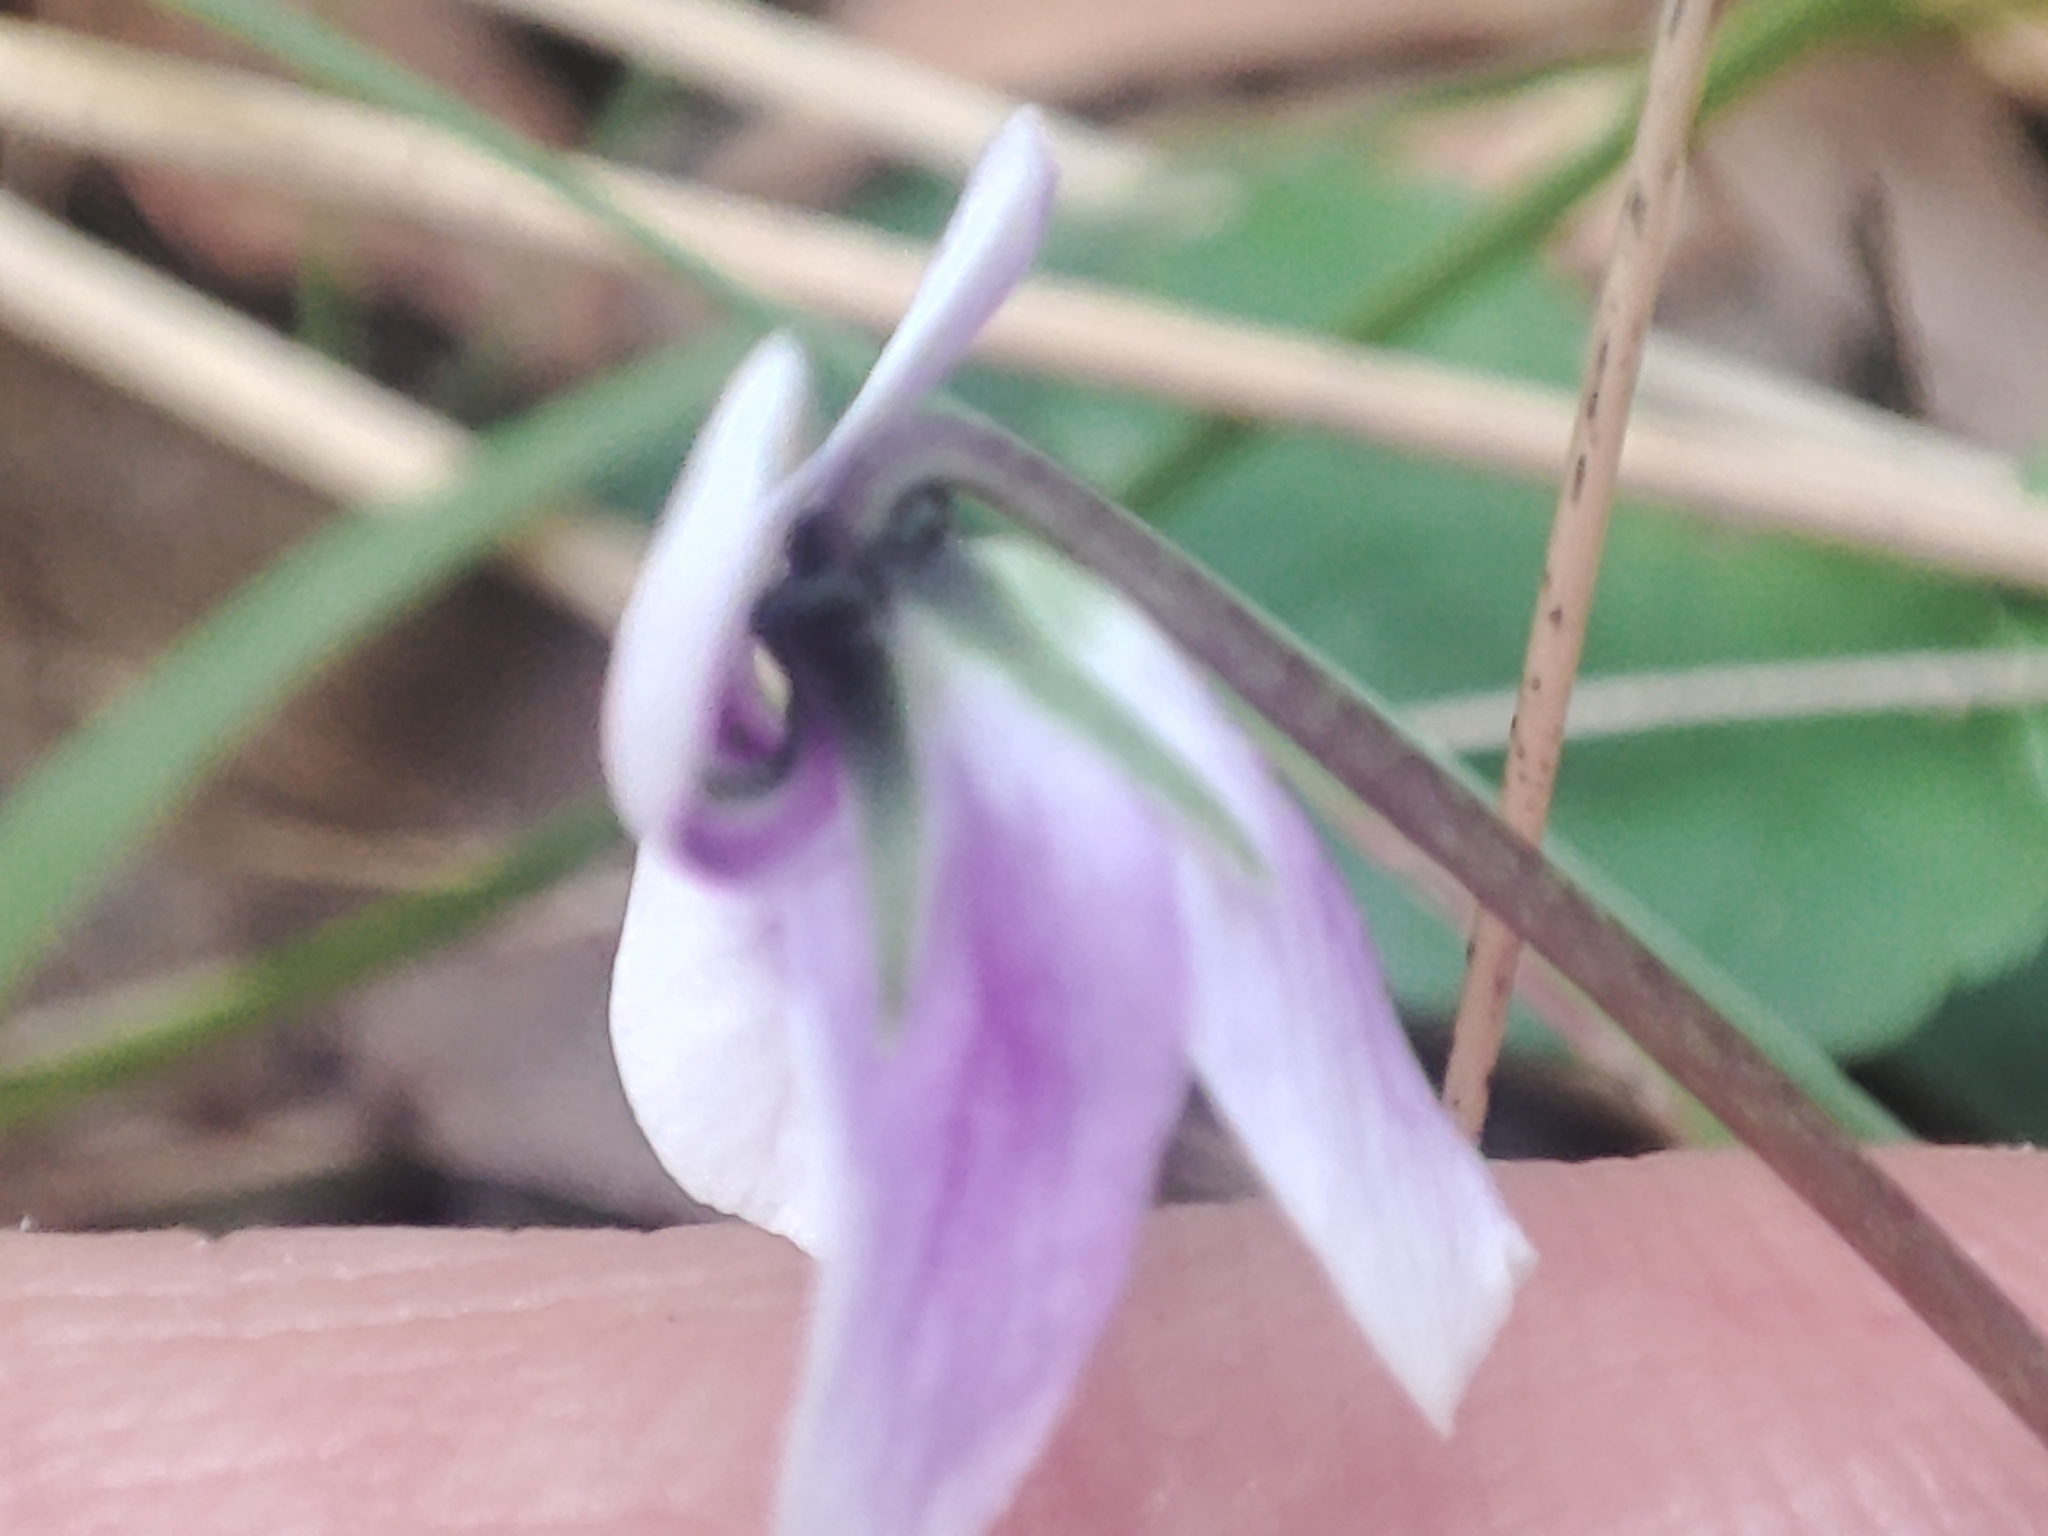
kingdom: Plantae
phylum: Tracheophyta
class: Magnoliopsida
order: Malpighiales
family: Violaceae
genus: Viola
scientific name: Viola hederacea
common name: Australian violet
